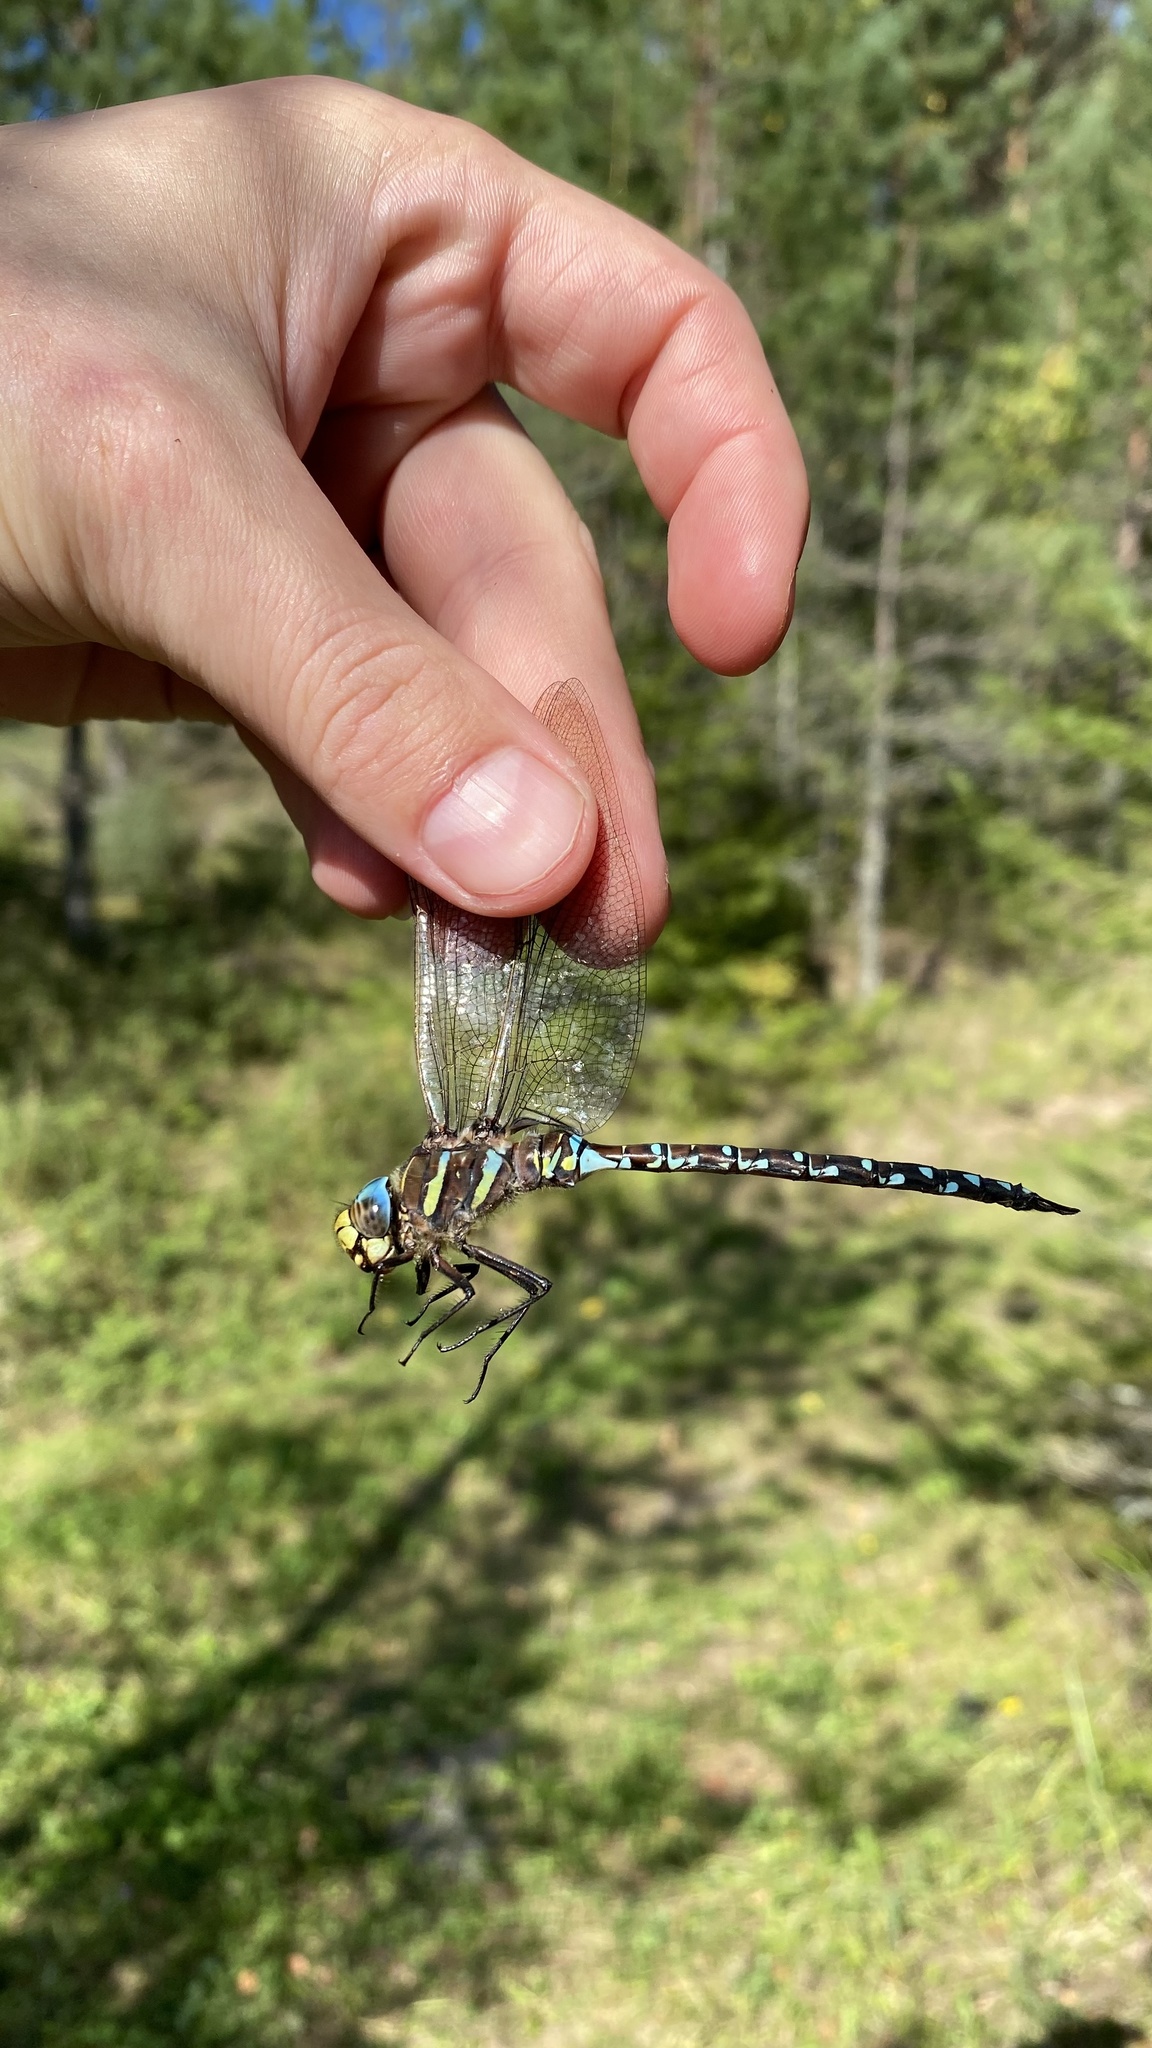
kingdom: Animalia
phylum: Arthropoda
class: Insecta
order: Odonata
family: Aeshnidae
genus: Aeshna
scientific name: Aeshna juncea
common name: Moorland hawker
